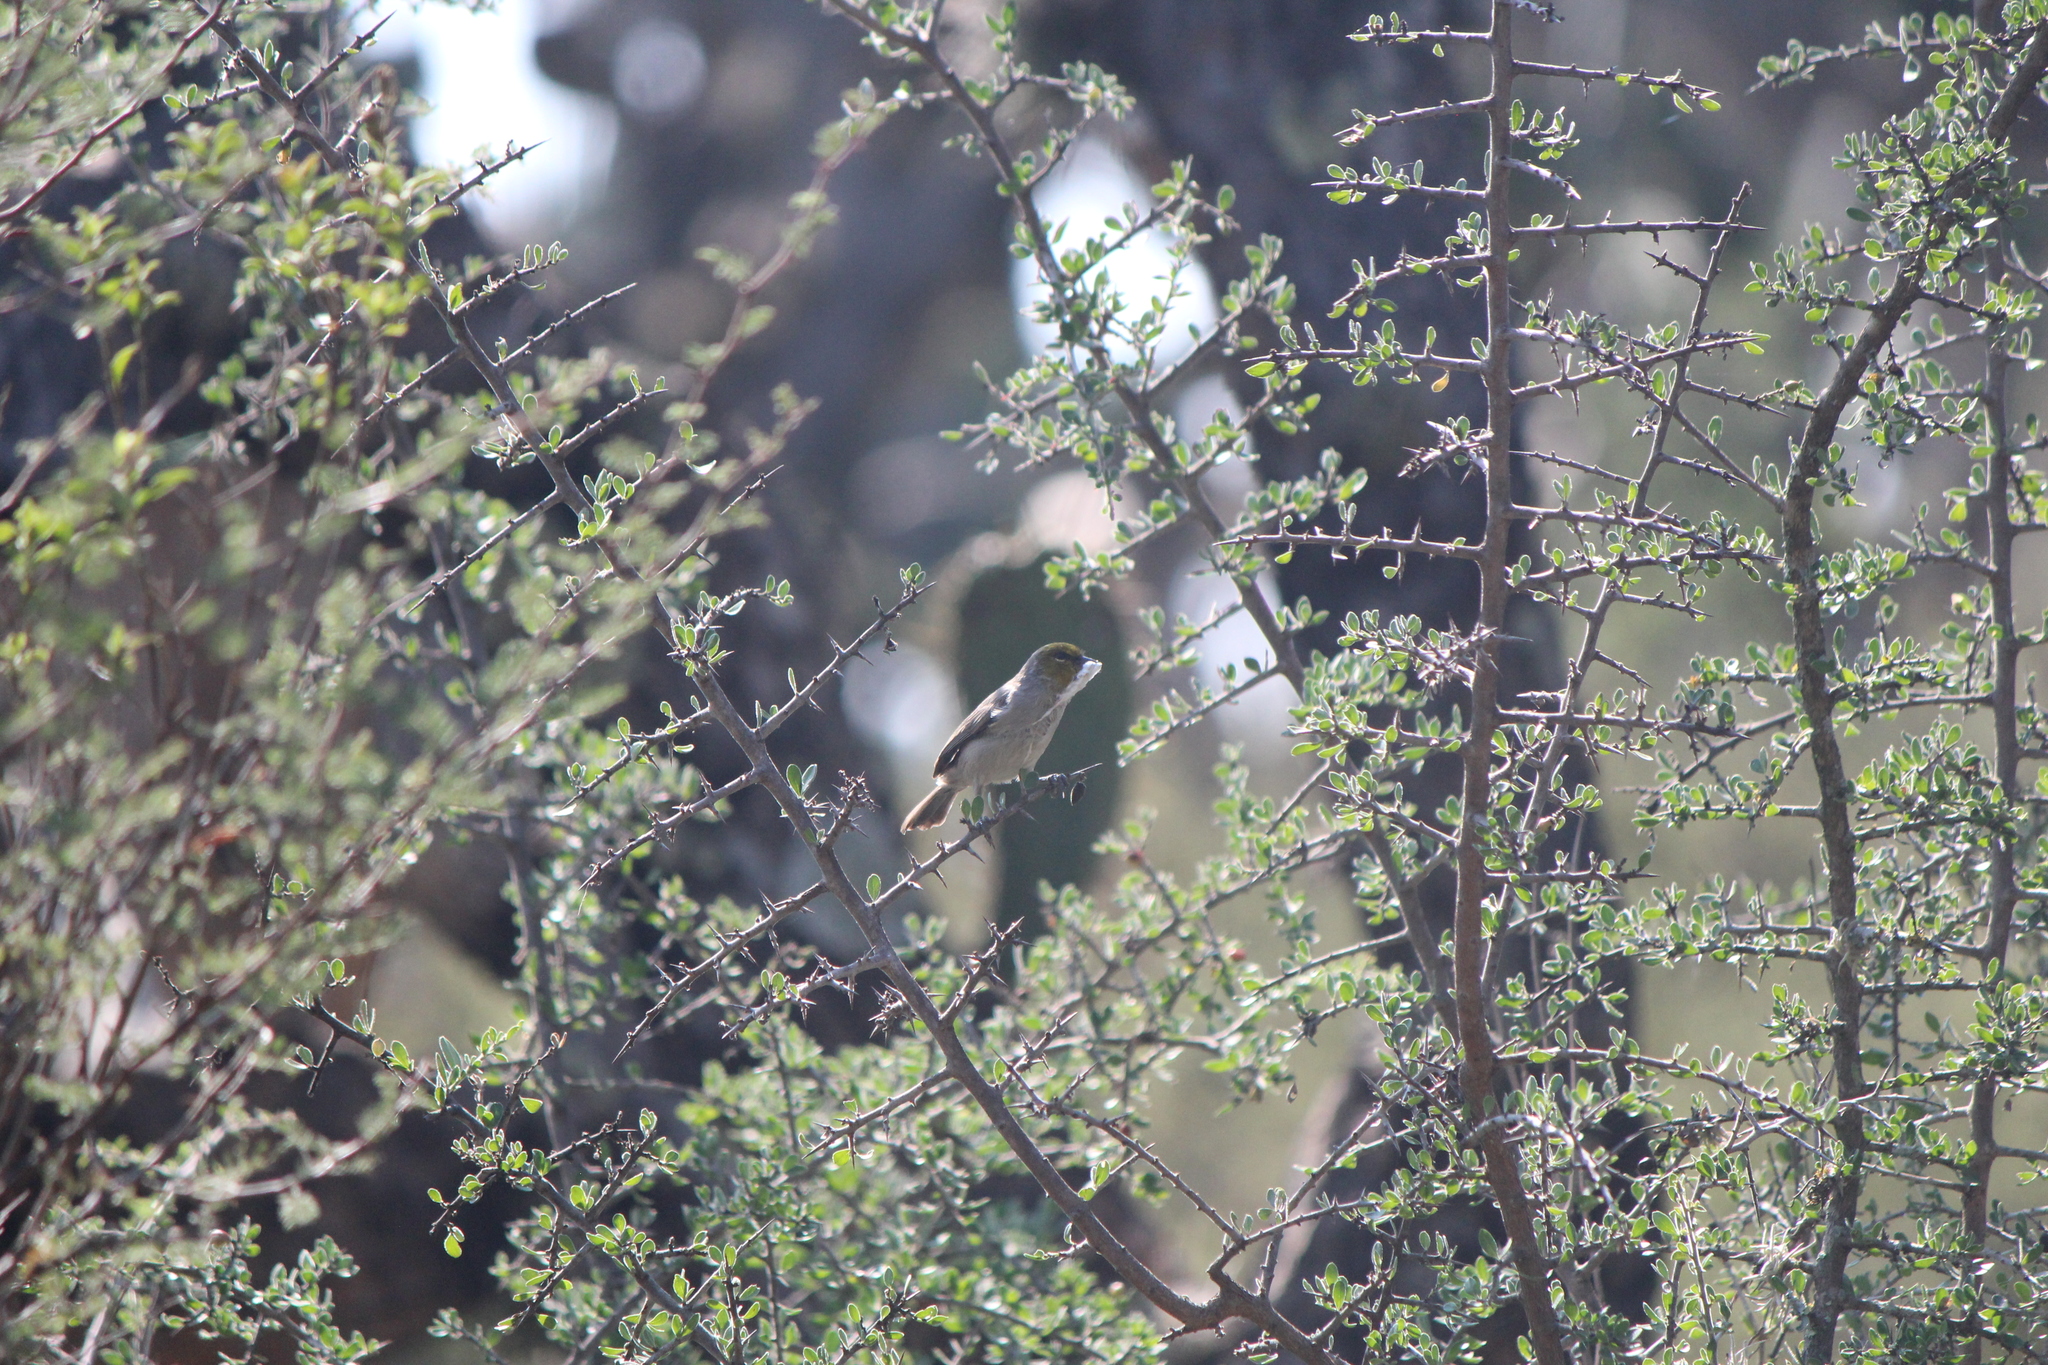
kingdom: Animalia
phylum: Chordata
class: Aves
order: Passeriformes
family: Remizidae
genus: Auriparus
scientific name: Auriparus flaviceps
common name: Verdin
